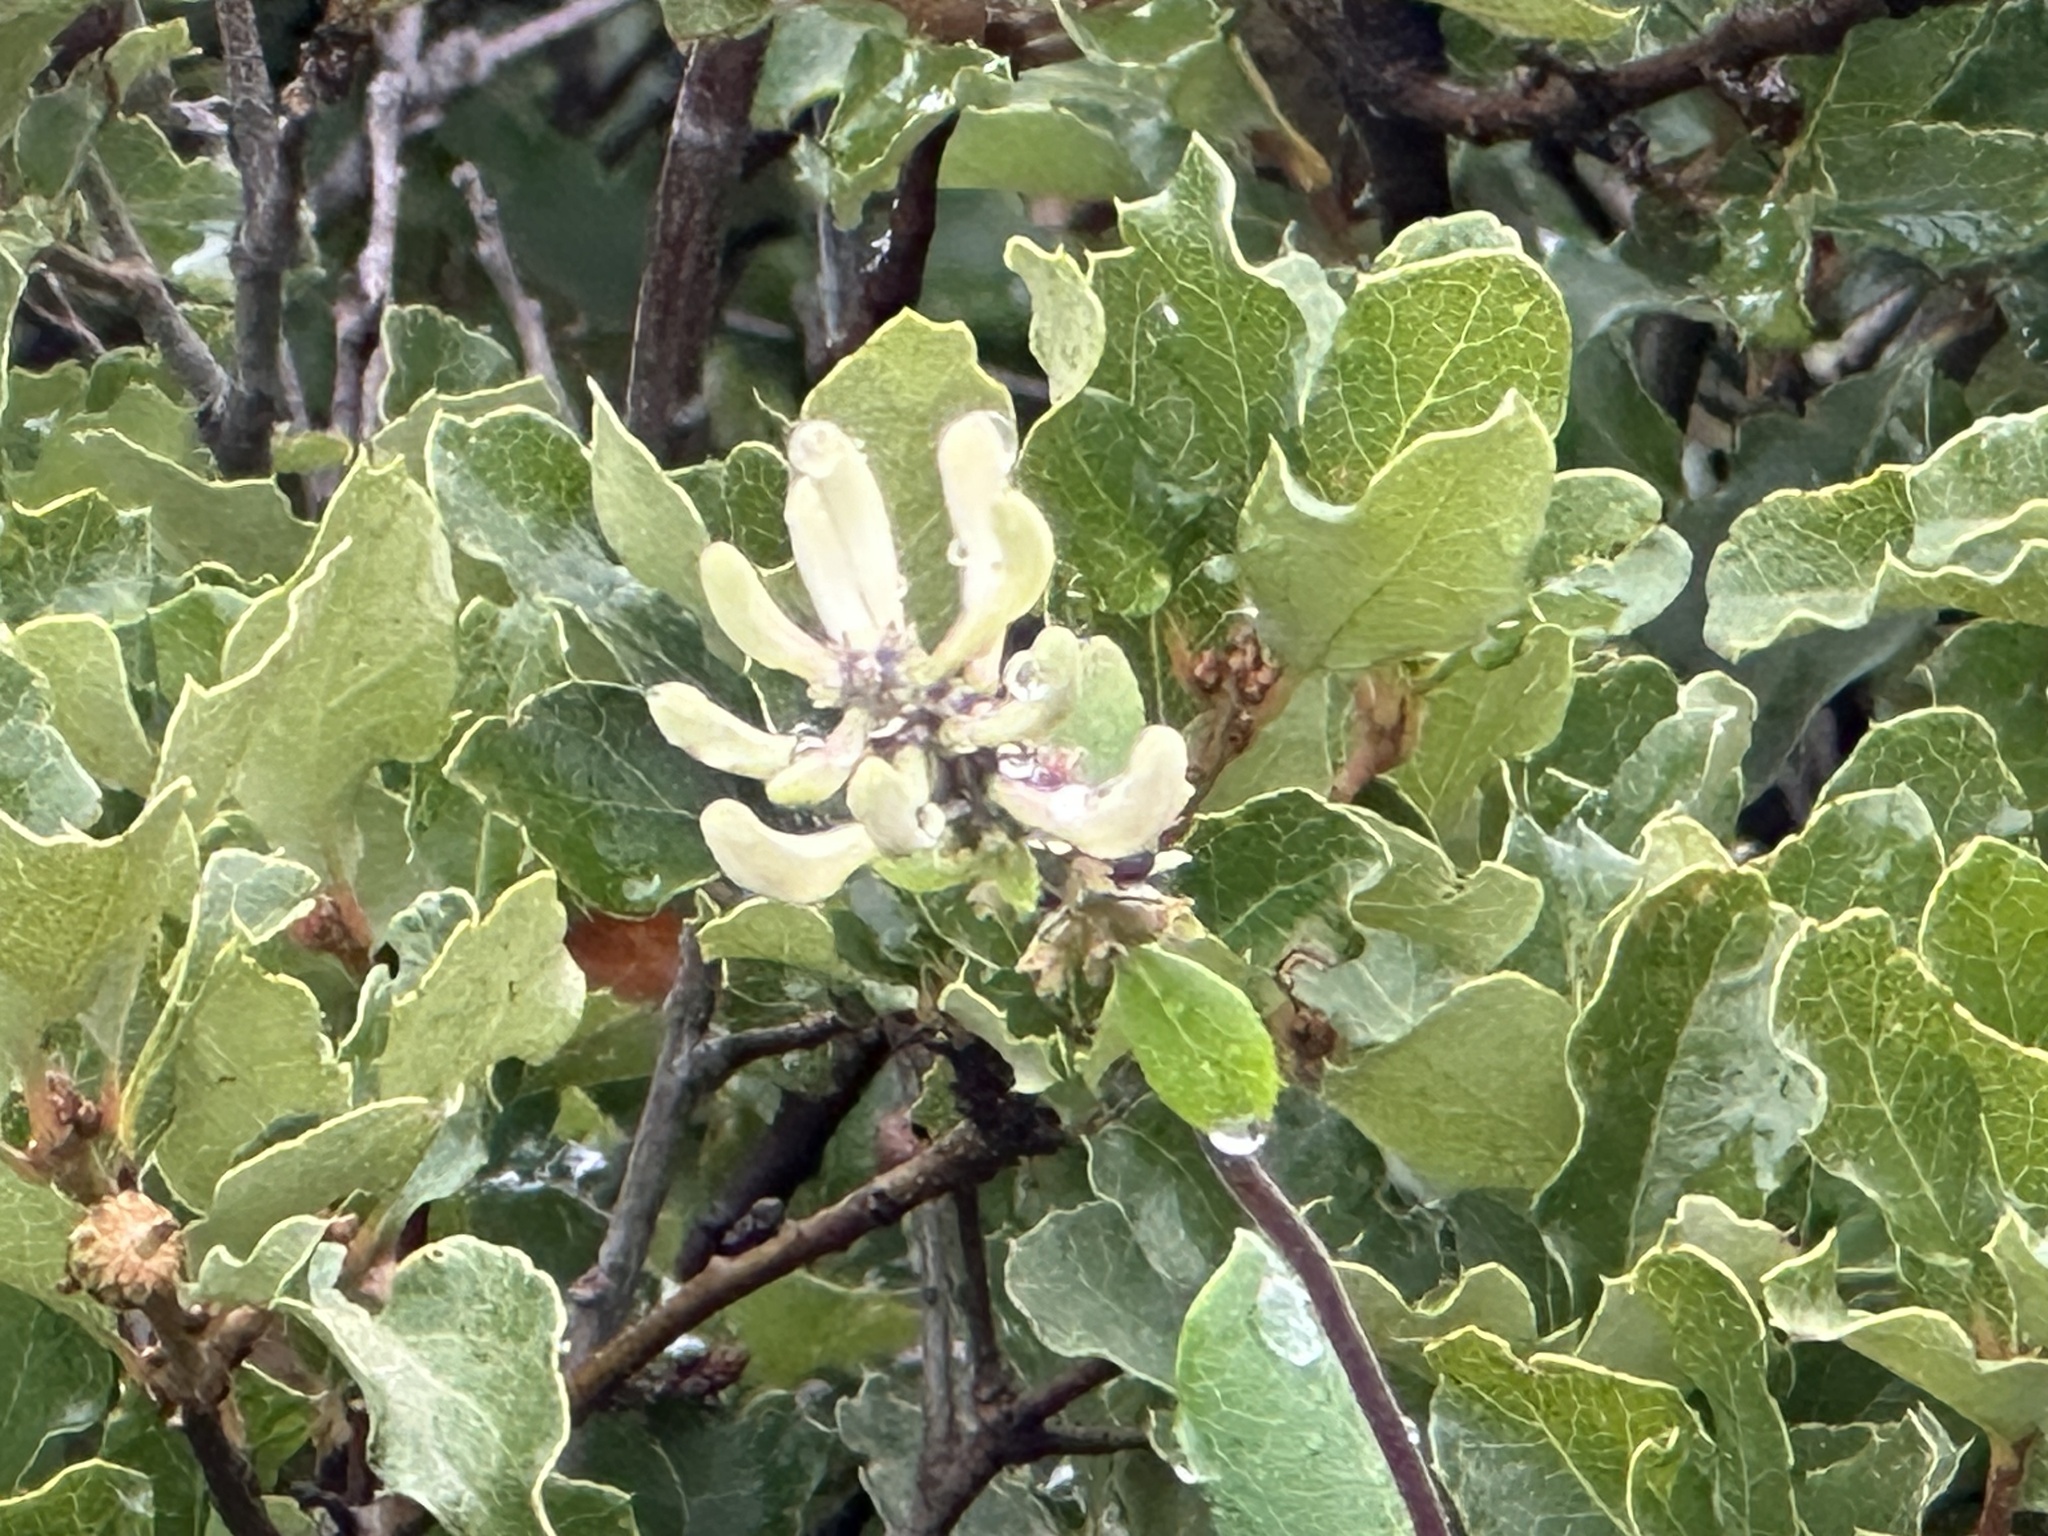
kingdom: Plantae
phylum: Tracheophyta
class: Magnoliopsida
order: Dipsacales
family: Caprifoliaceae
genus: Lonicera
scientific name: Lonicera subspicata
